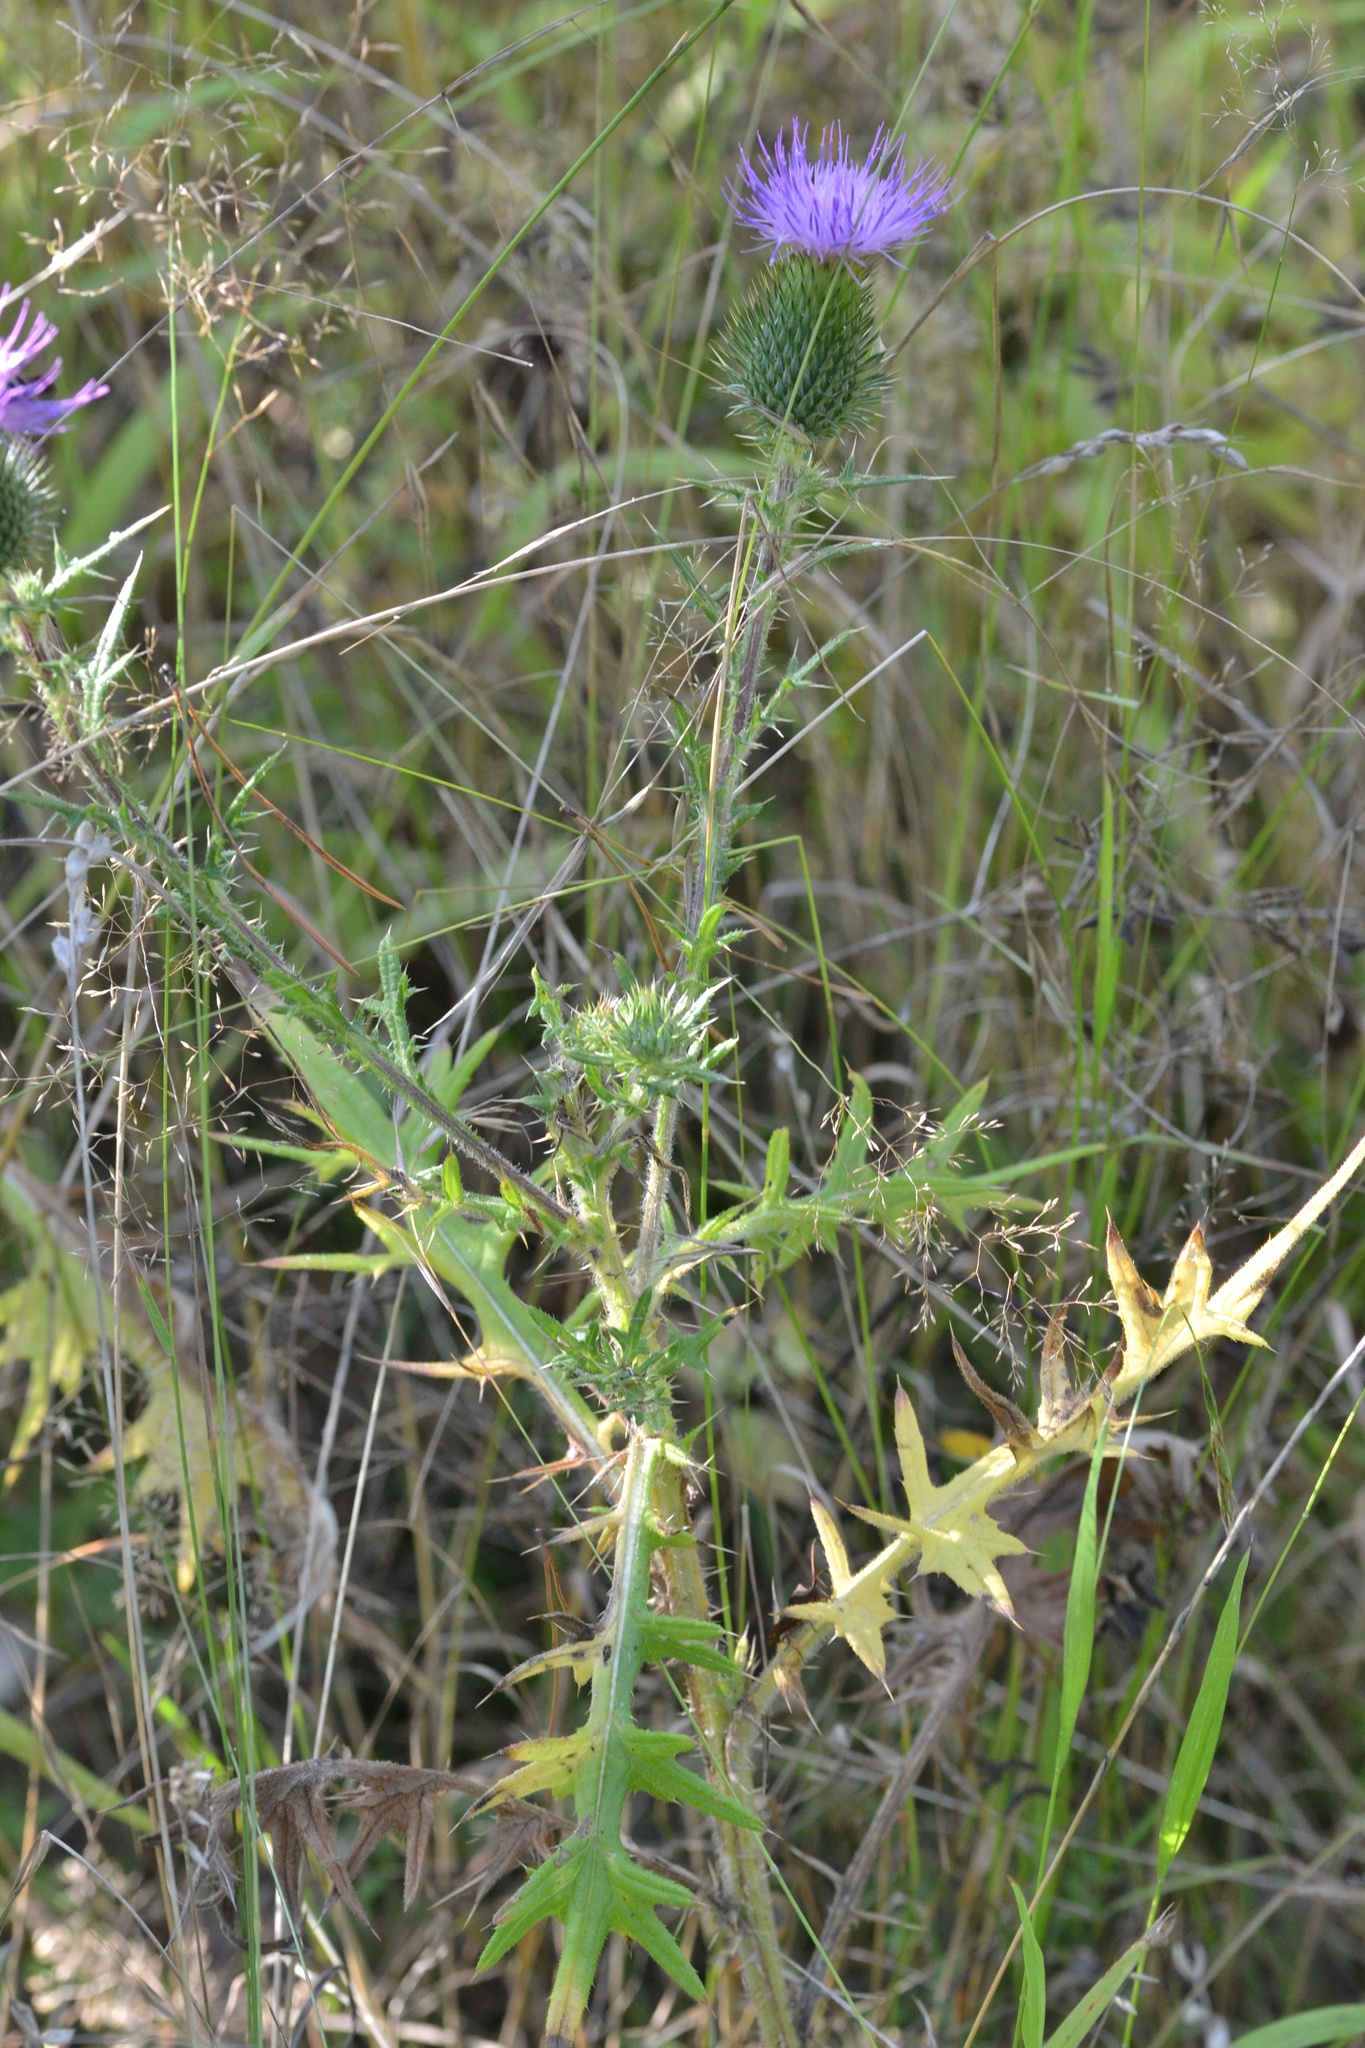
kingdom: Plantae
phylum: Tracheophyta
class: Magnoliopsida
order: Asterales
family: Asteraceae
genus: Cirsium
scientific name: Cirsium vulgare
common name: Bull thistle
